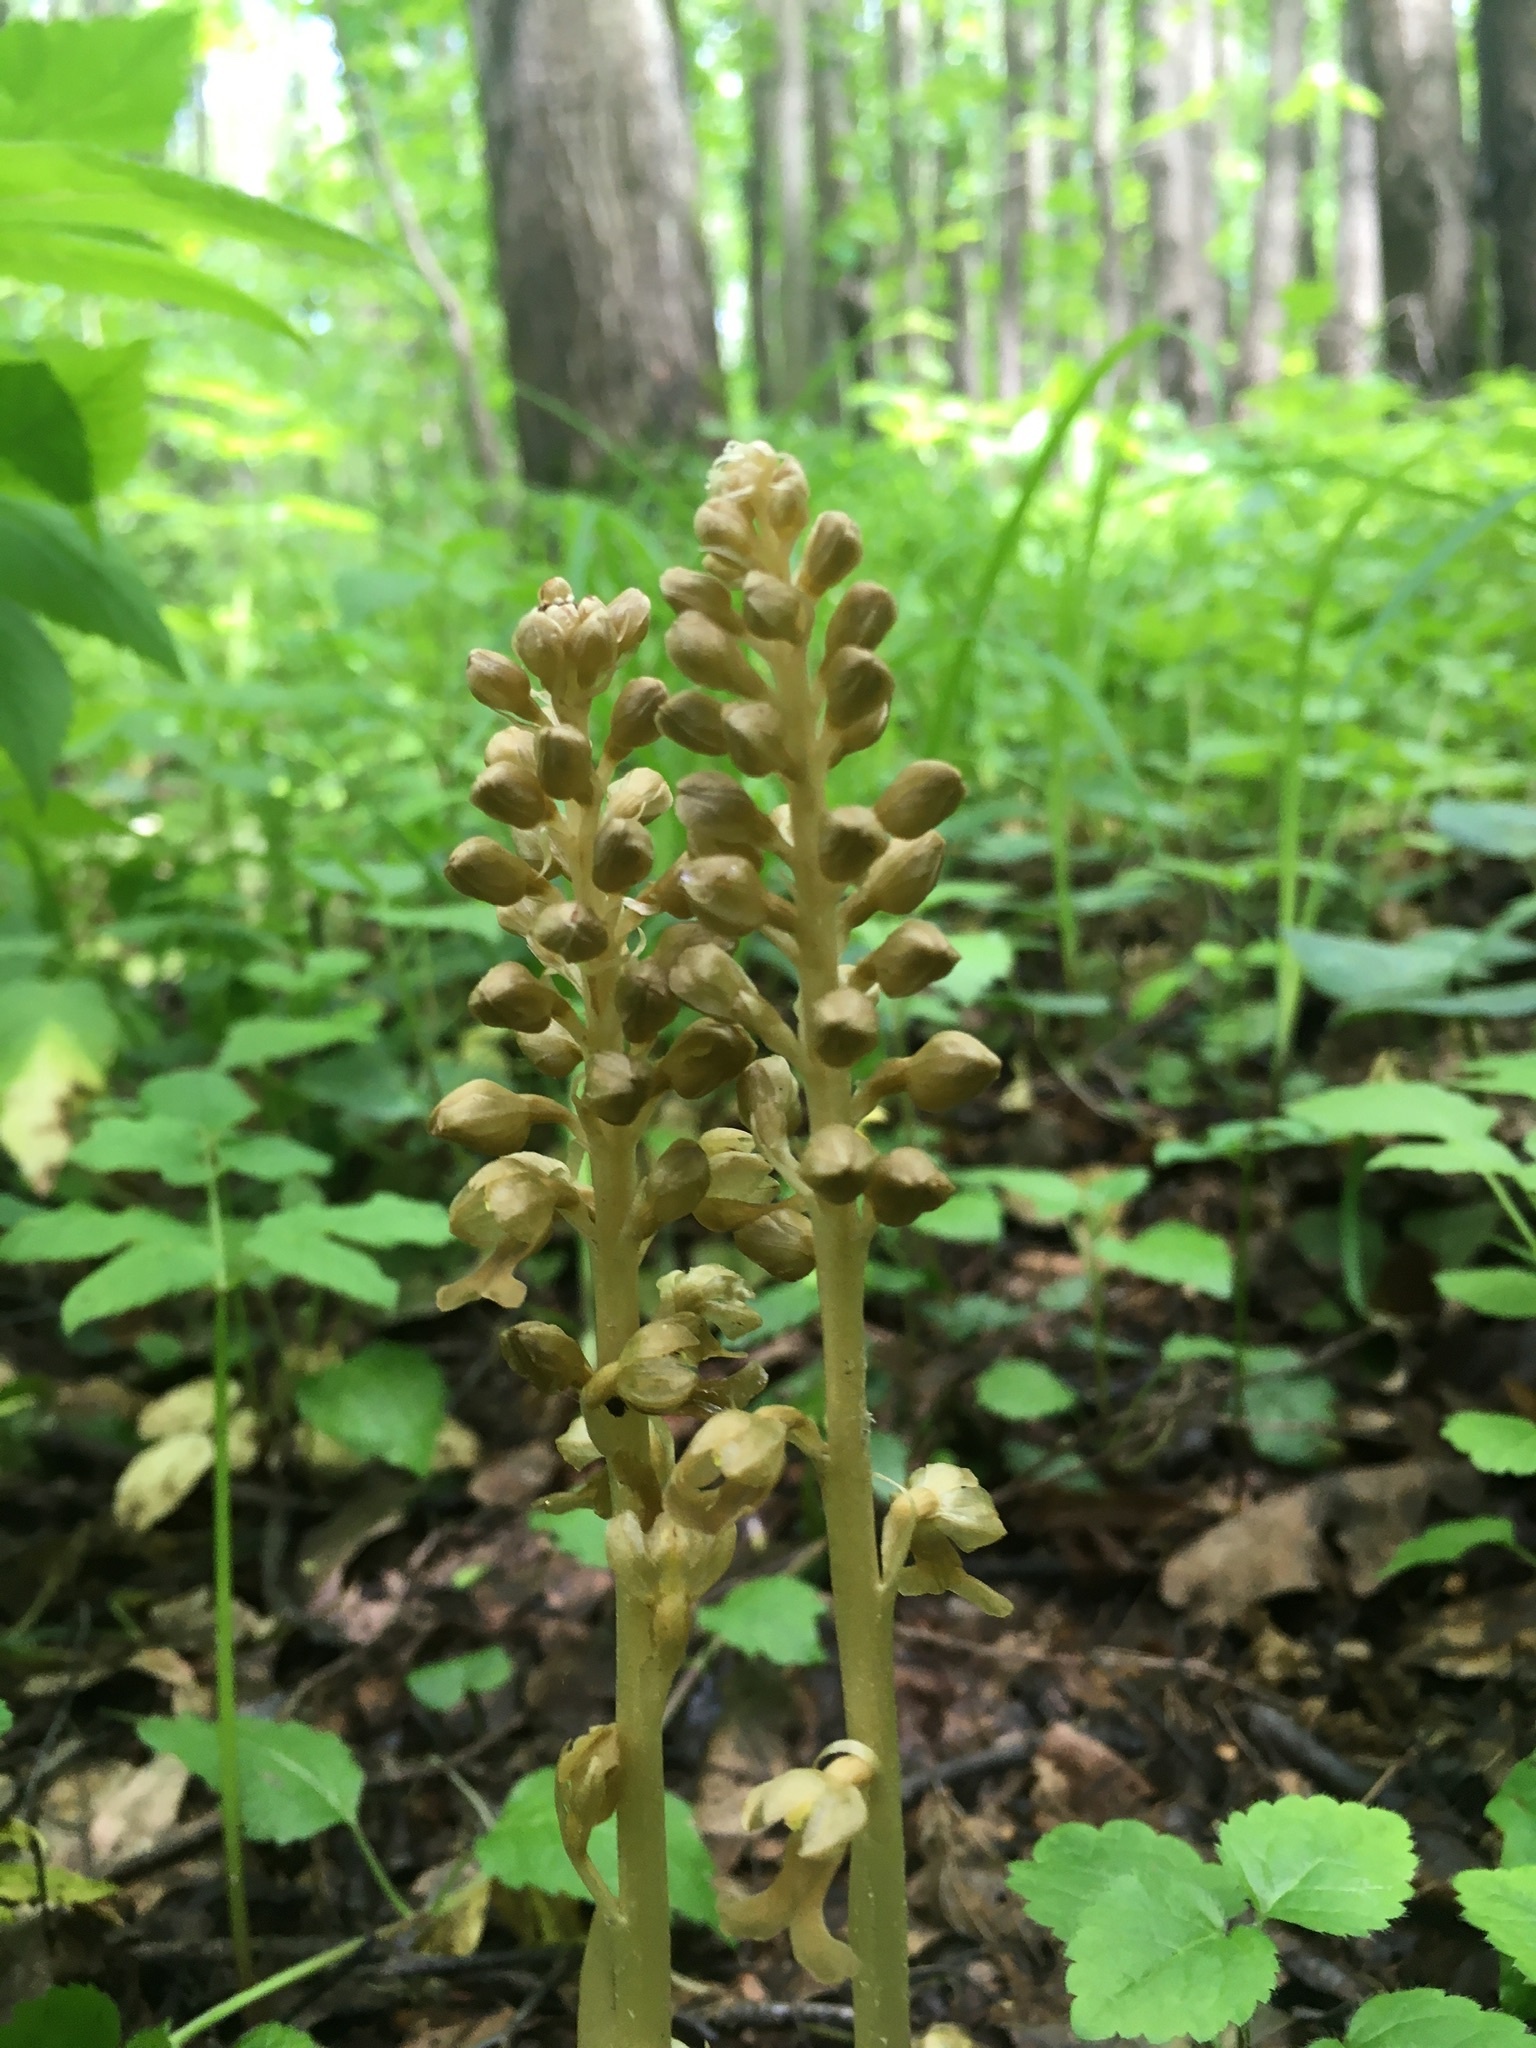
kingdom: Plantae
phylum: Tracheophyta
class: Liliopsida
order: Asparagales
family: Orchidaceae
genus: Neottia
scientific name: Neottia nidus-avis
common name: Bird's-nest orchid
